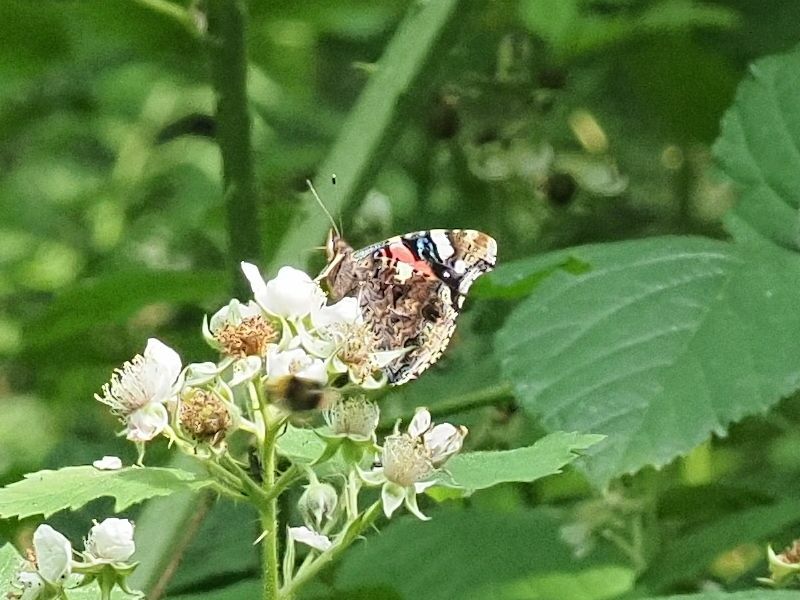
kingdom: Animalia
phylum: Arthropoda
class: Insecta
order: Lepidoptera
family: Nymphalidae
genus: Vanessa
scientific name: Vanessa atalanta
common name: Red admiral
